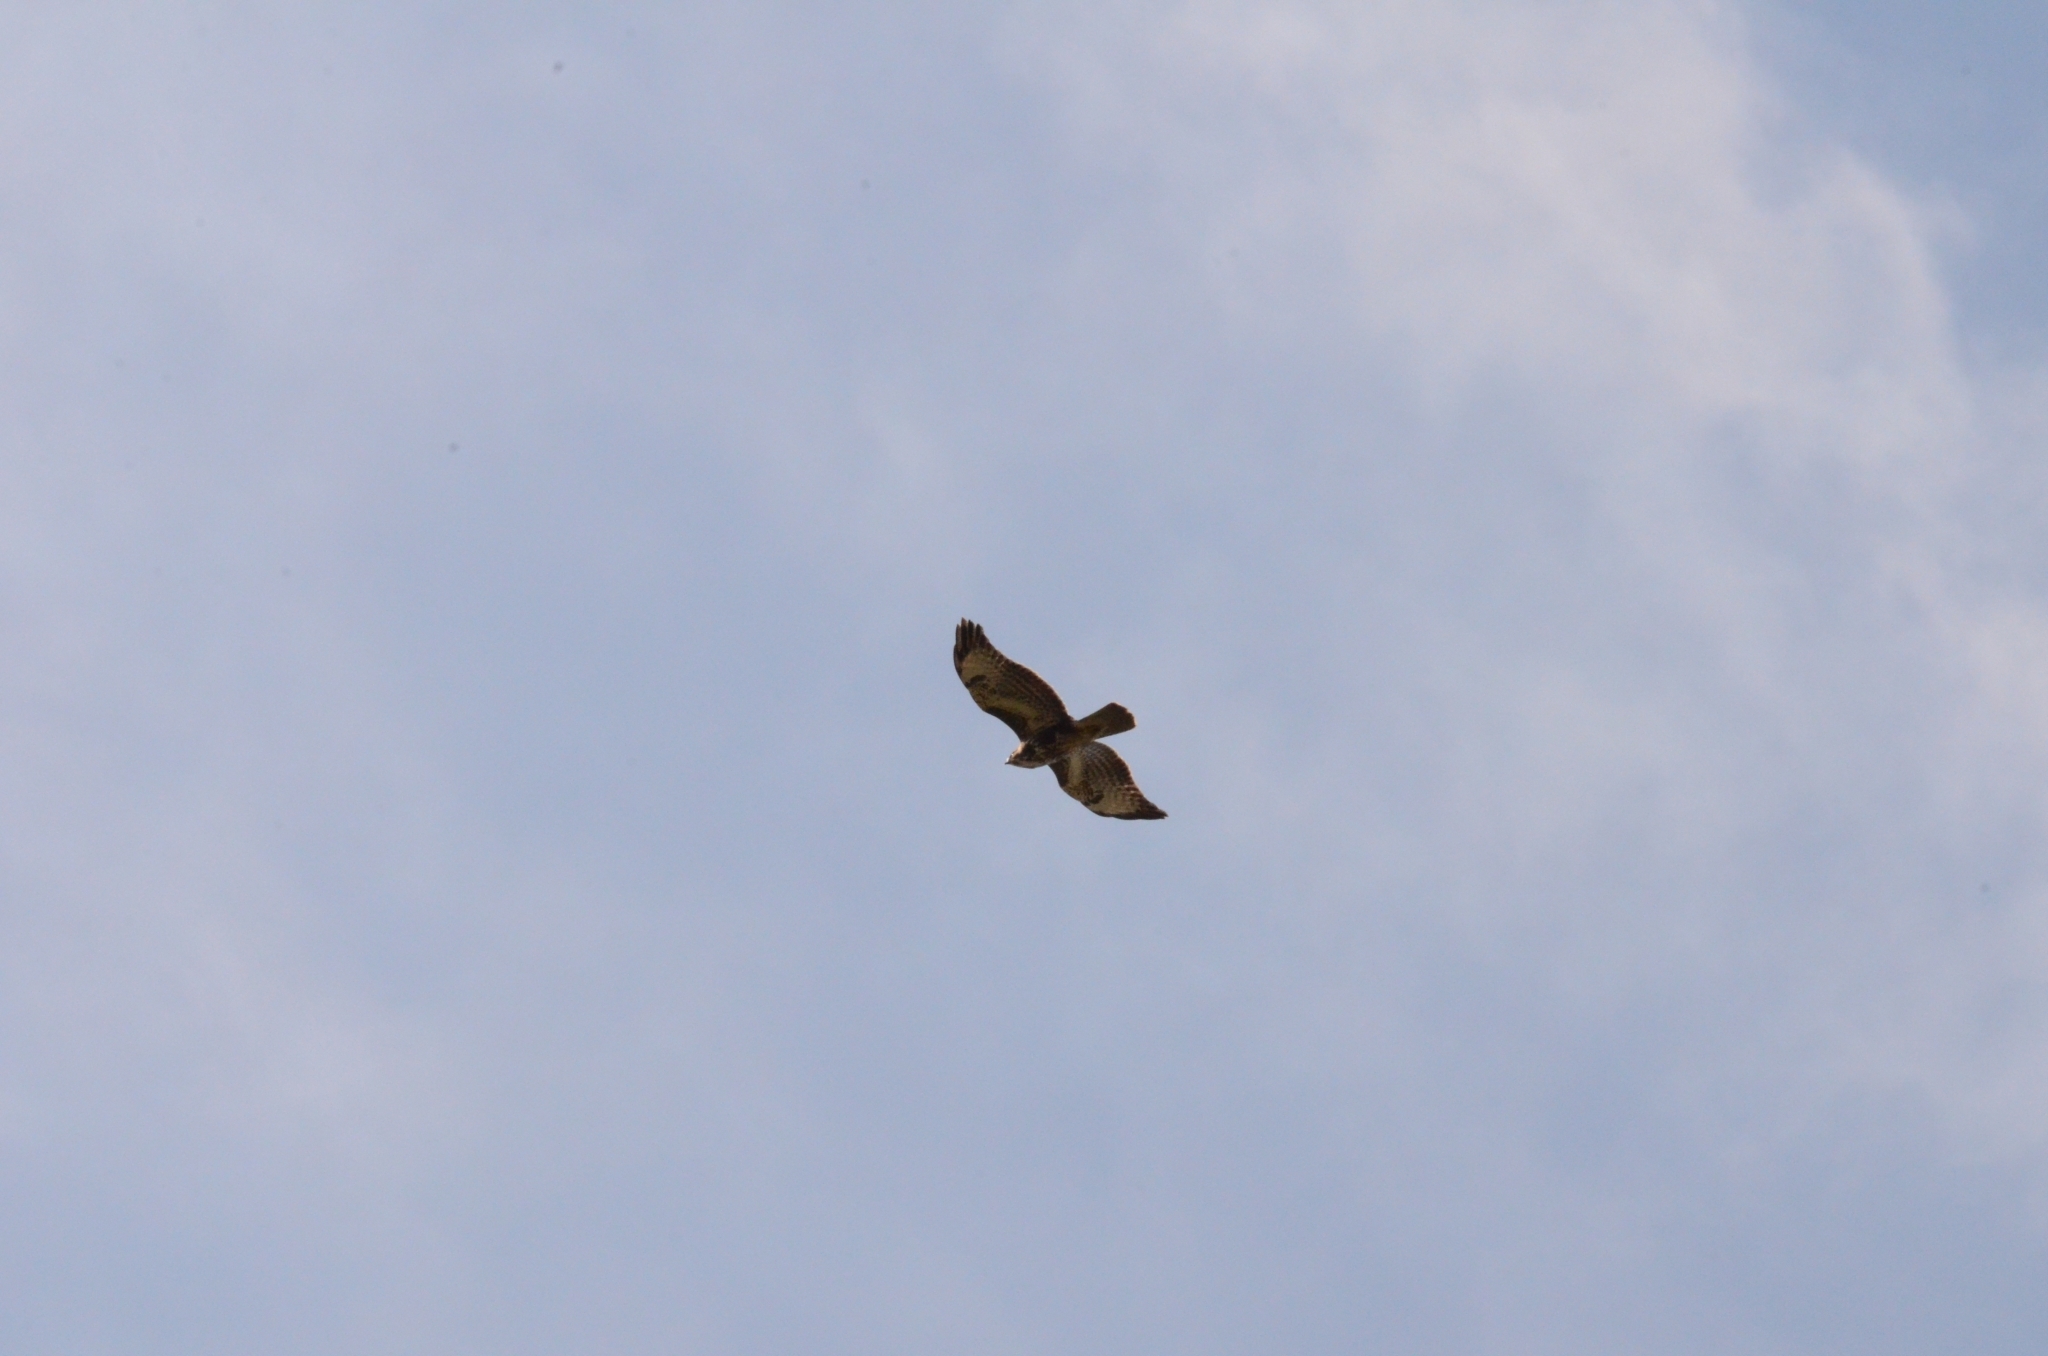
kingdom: Animalia
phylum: Chordata
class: Aves
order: Accipitriformes
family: Accipitridae
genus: Buteo
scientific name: Buteo buteo
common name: Common buzzard
